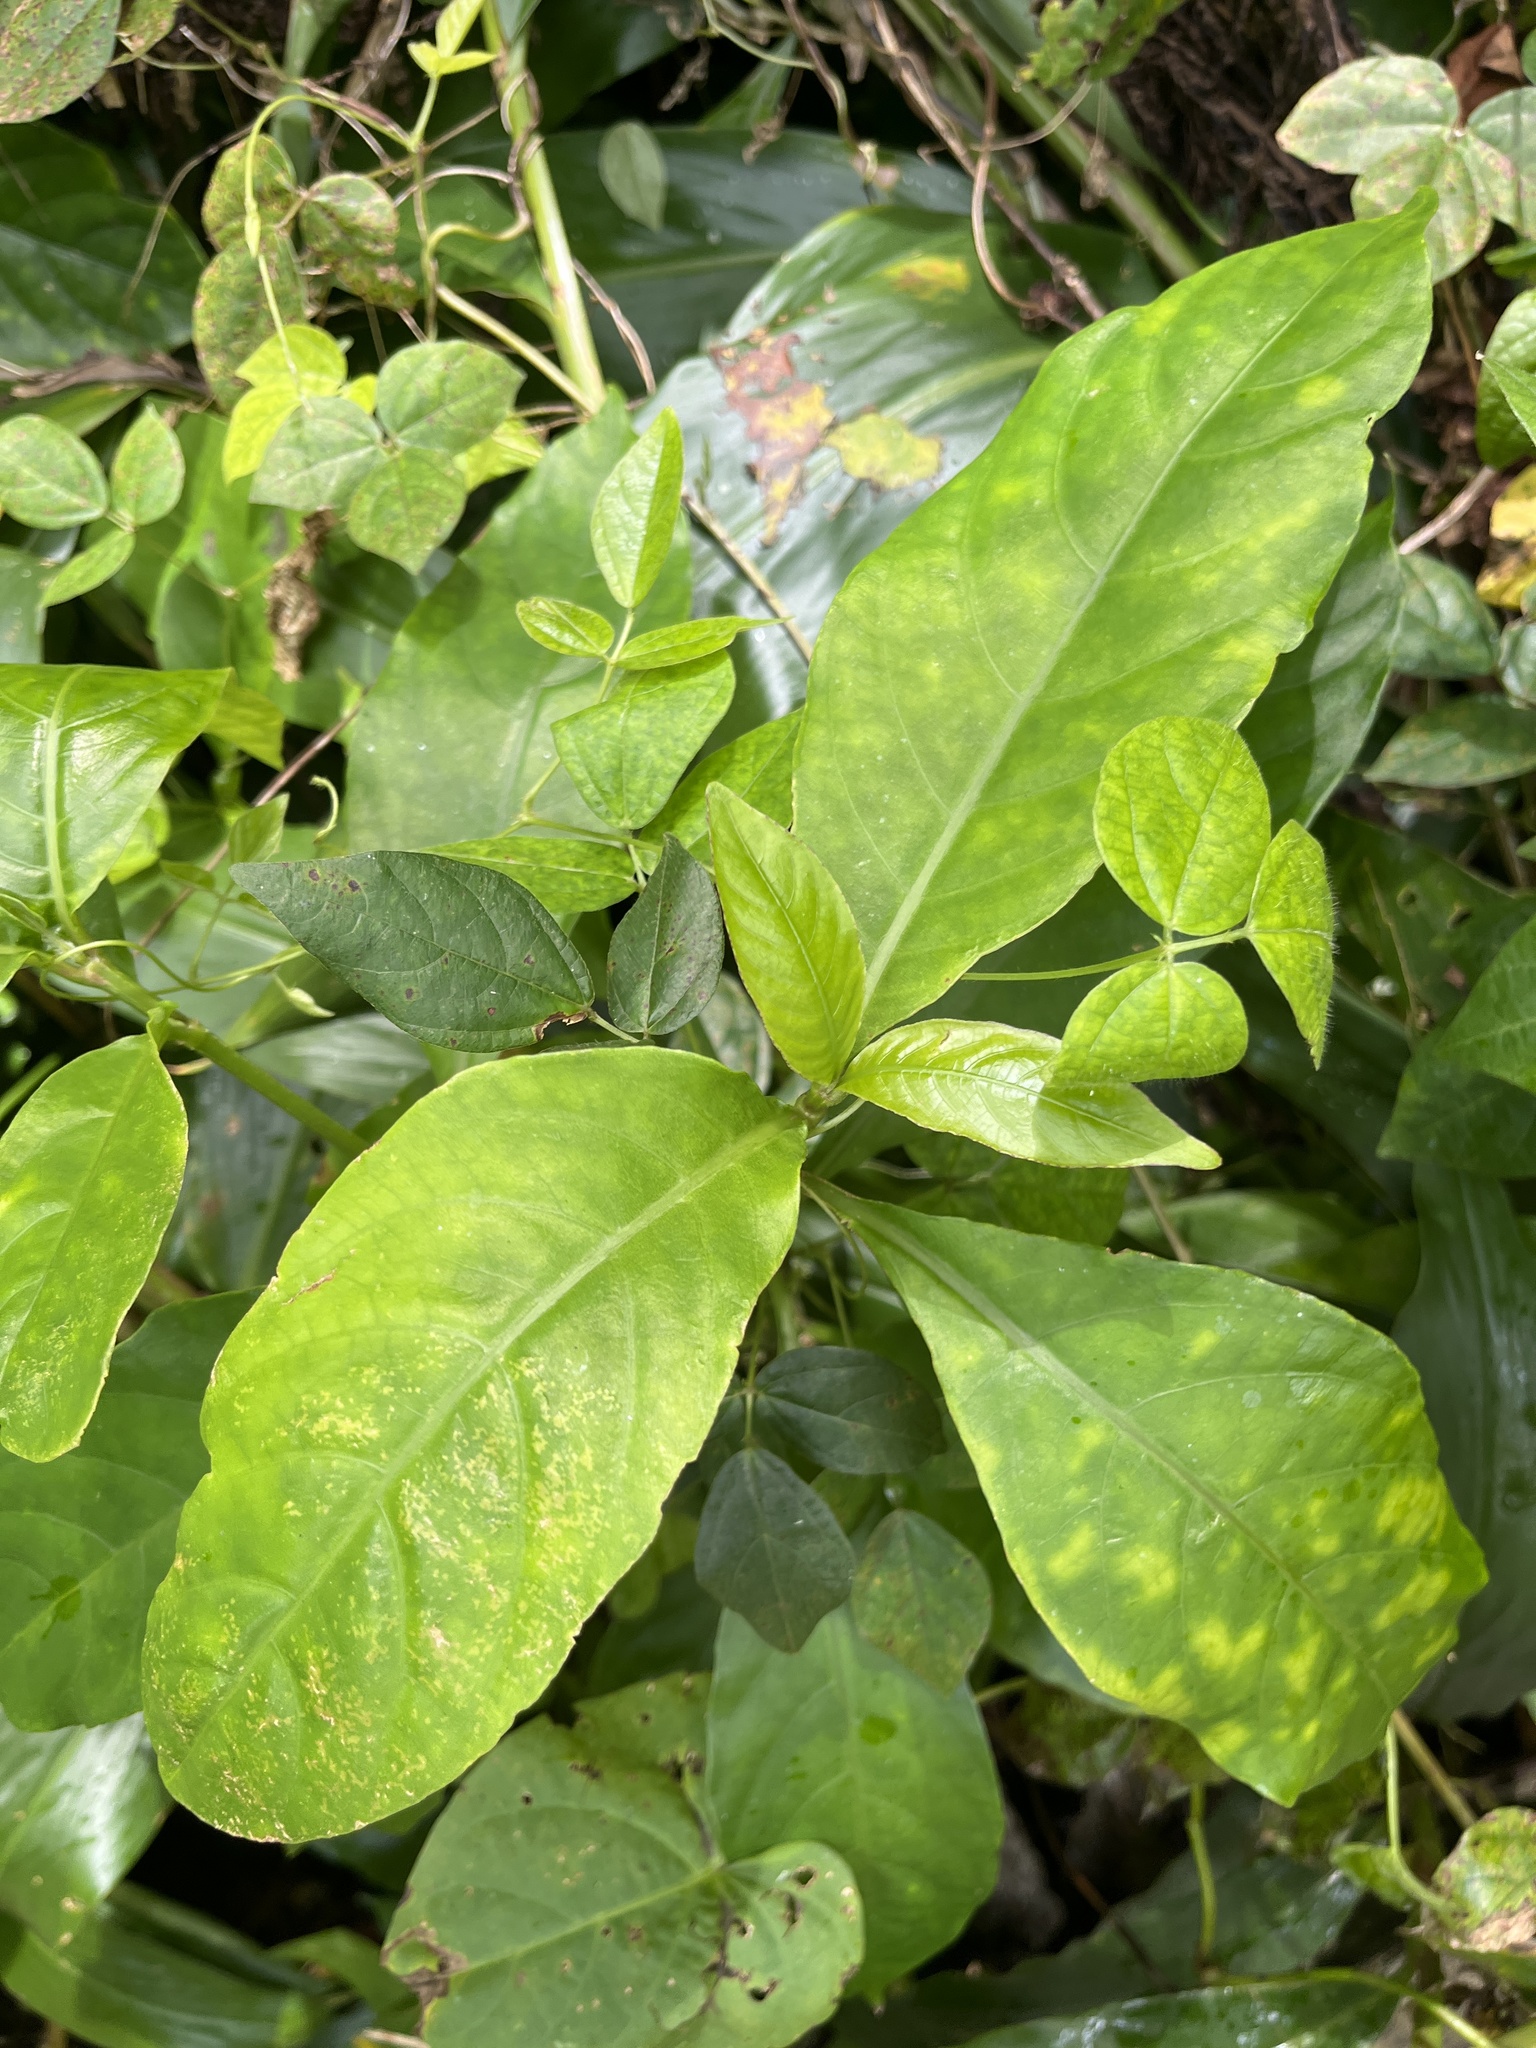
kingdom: Plantae
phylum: Tracheophyta
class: Magnoliopsida
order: Lamiales
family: Acanthaceae
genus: Odontonema
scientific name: Odontonema cuspidatum
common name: Mottled toothedthread
